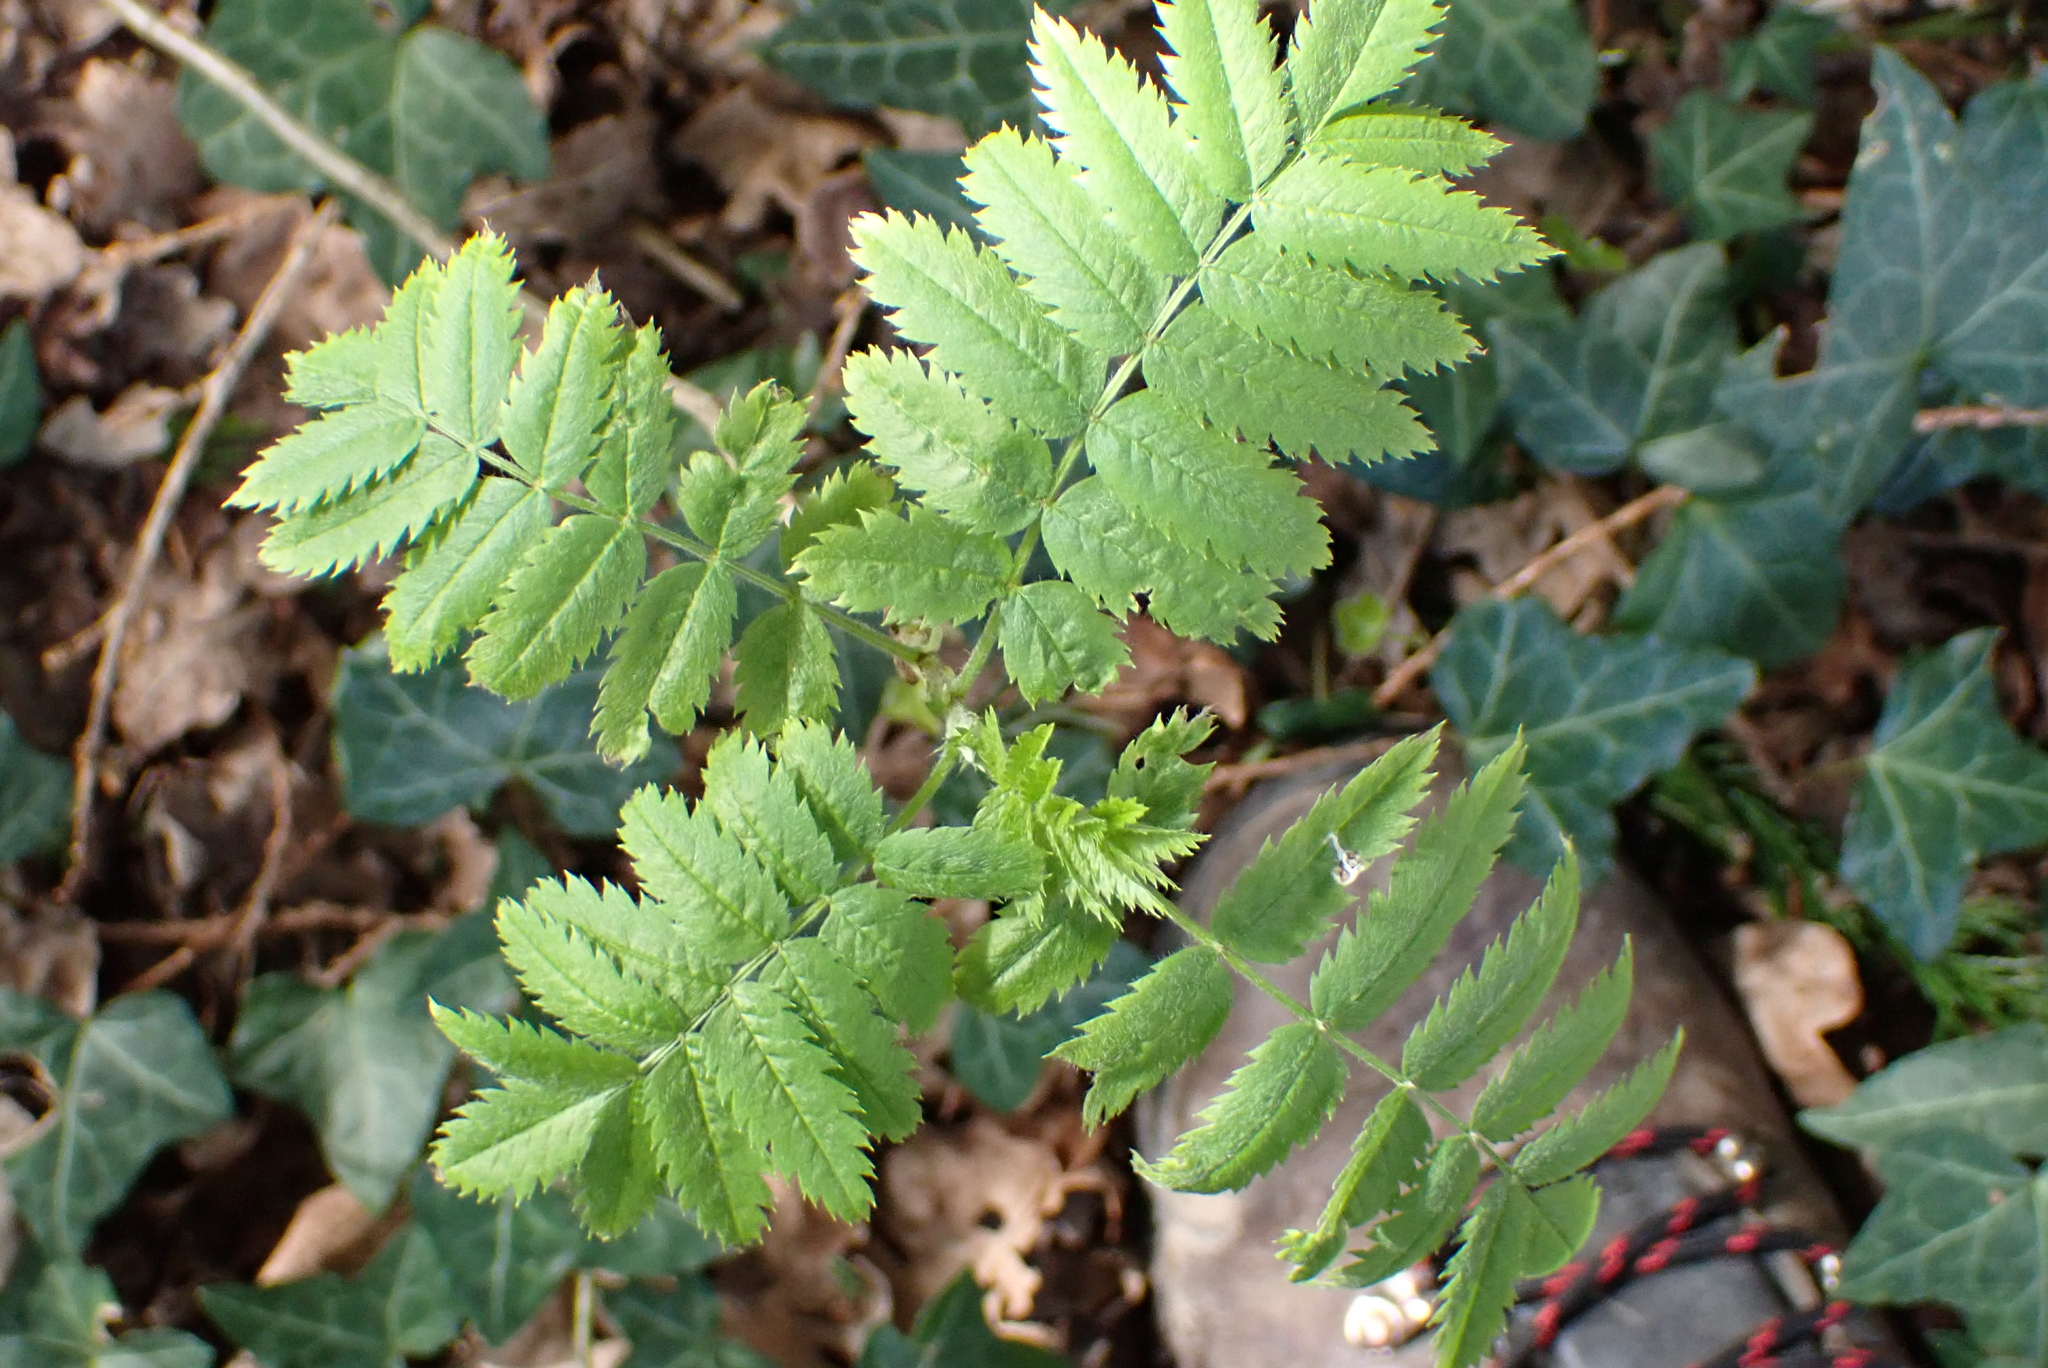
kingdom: Plantae
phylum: Tracheophyta
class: Magnoliopsida
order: Rosales
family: Rosaceae
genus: Sorbus
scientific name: Sorbus aucuparia
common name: Rowan
